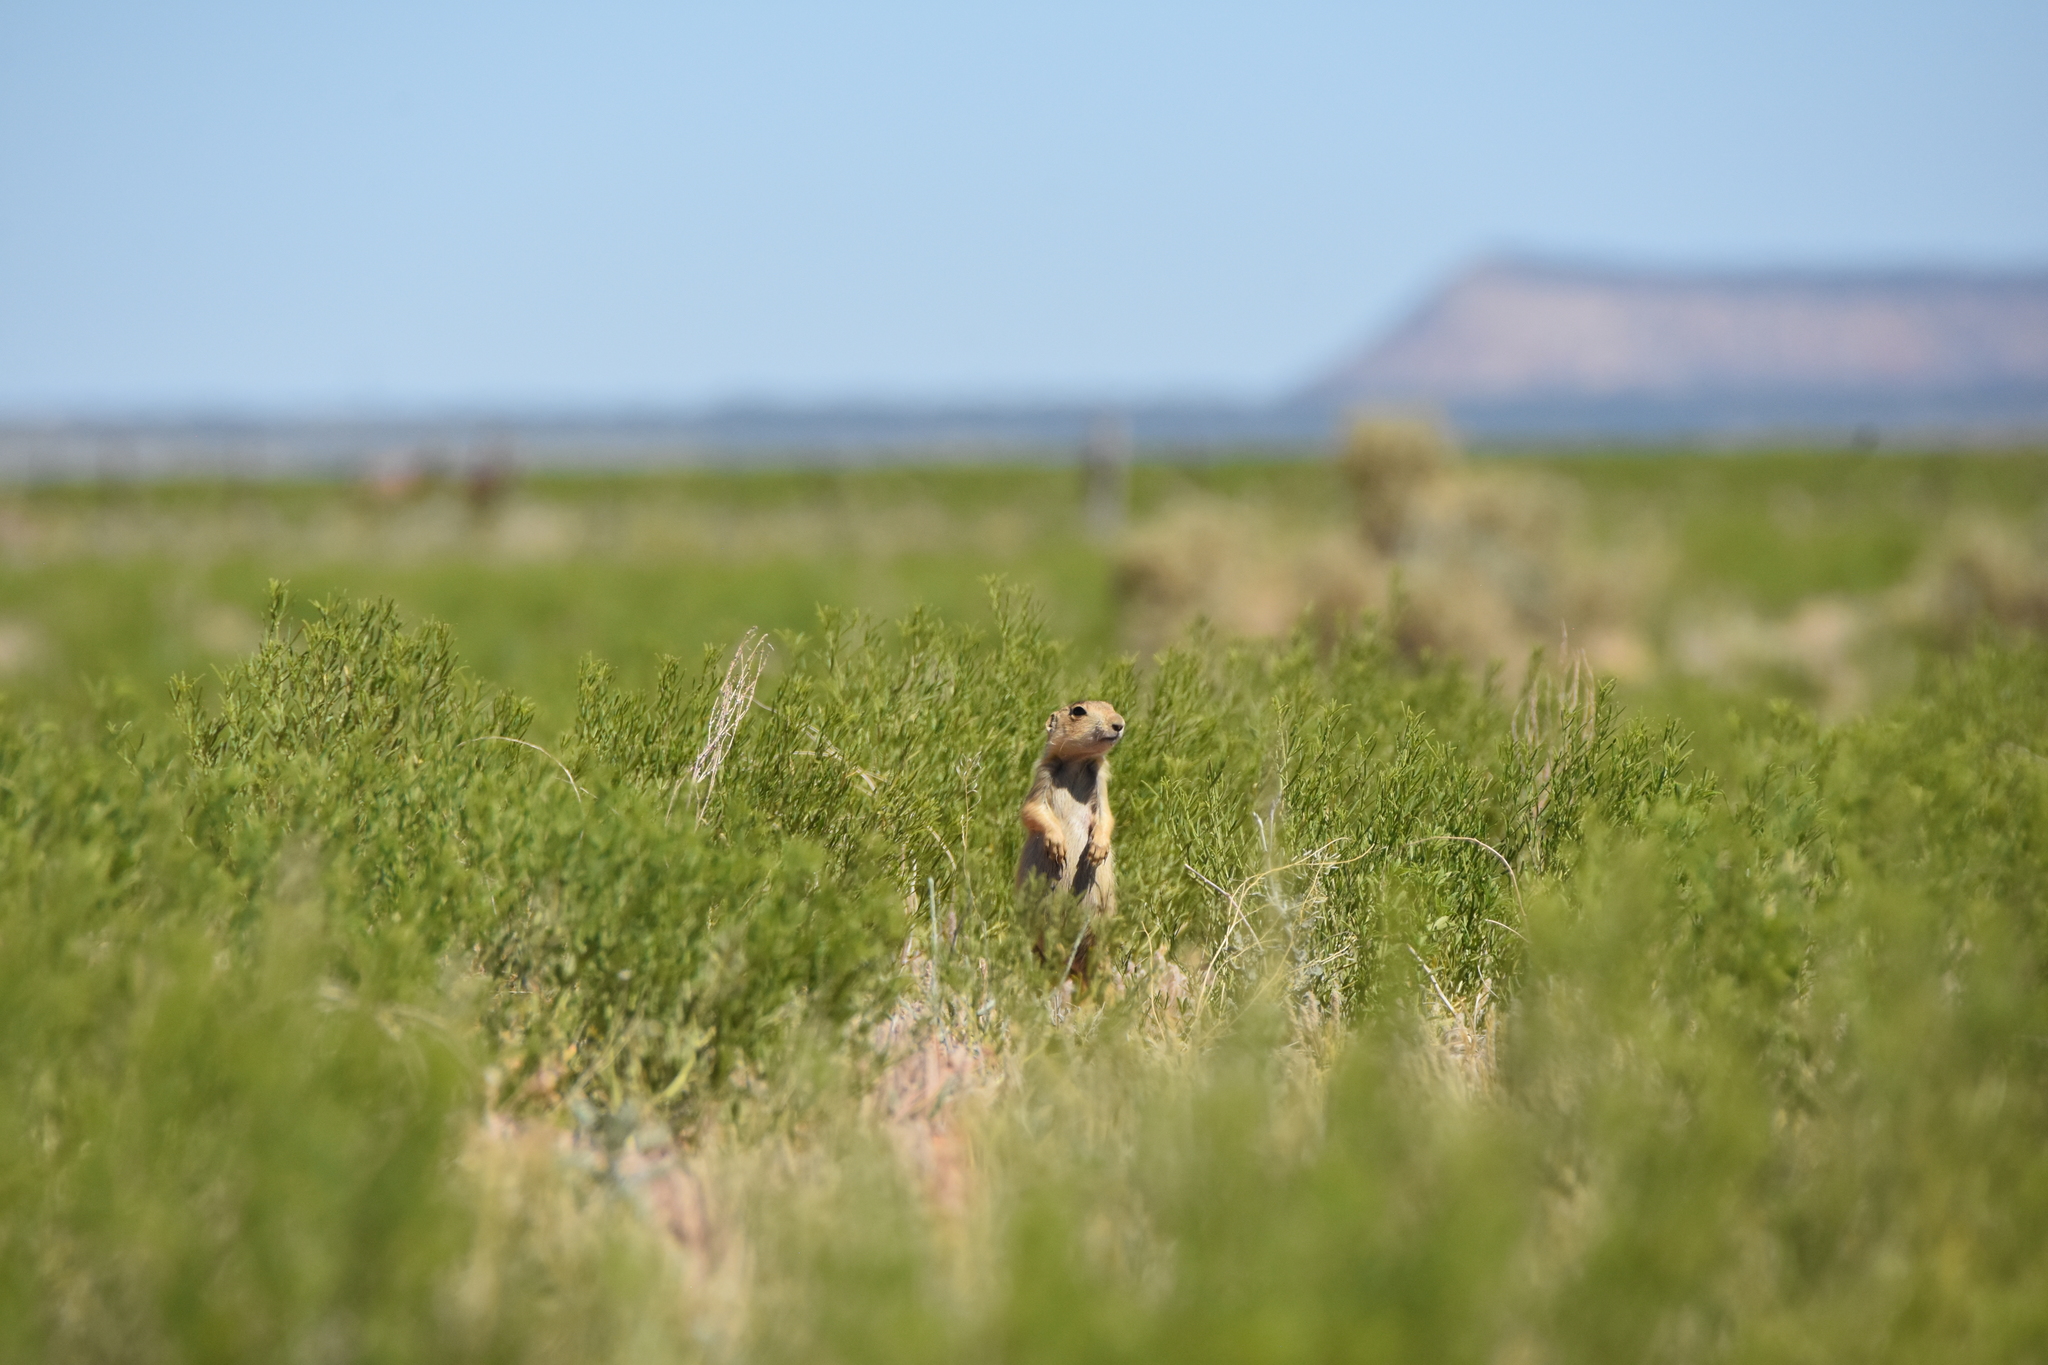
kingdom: Animalia
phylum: Chordata
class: Mammalia
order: Rodentia
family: Sciuridae
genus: Cynomys
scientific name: Cynomys gunnisoni
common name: Gunnison's prairie dog
